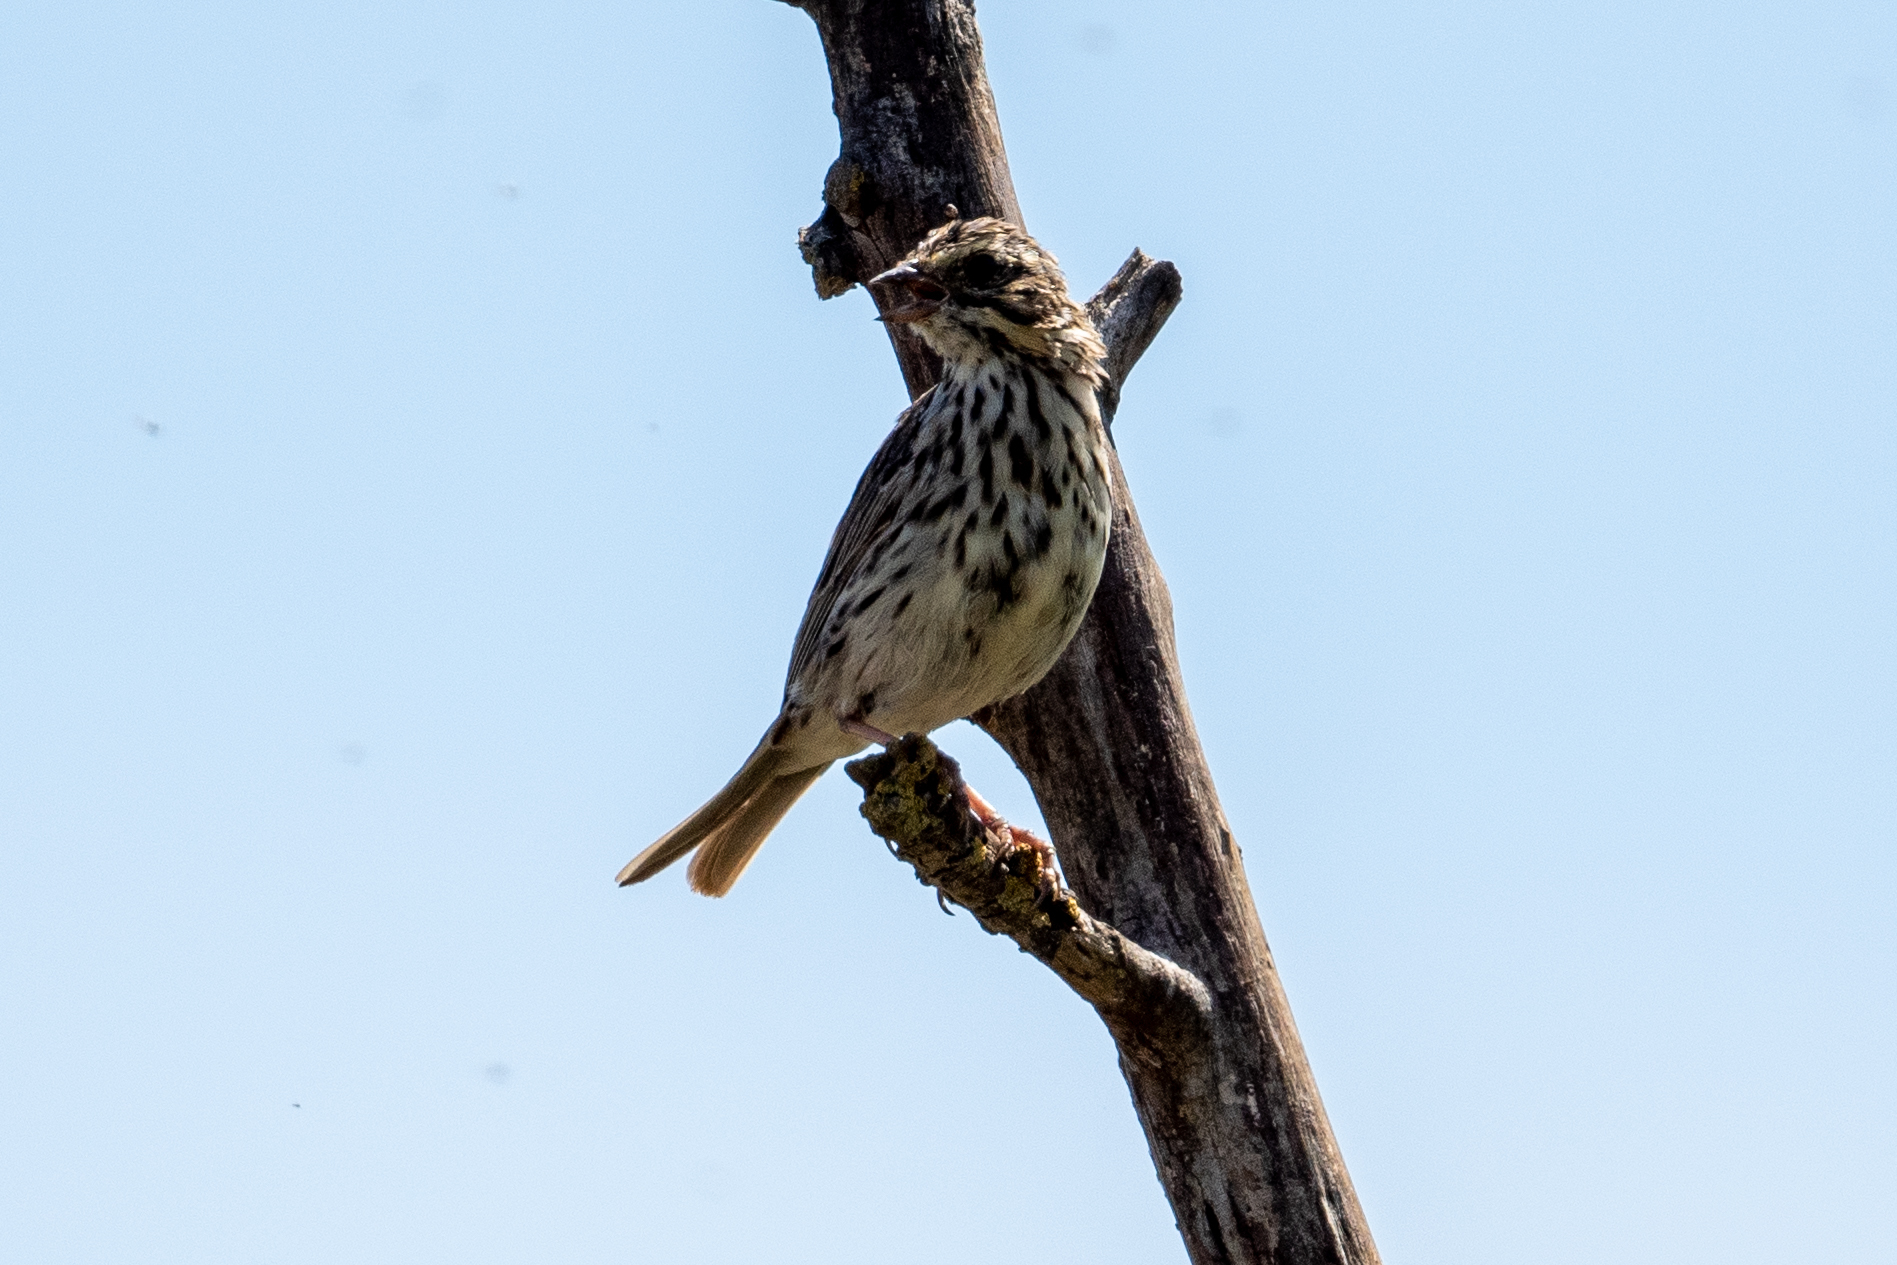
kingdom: Animalia
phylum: Chordata
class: Aves
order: Passeriformes
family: Passerellidae
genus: Passerculus
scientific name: Passerculus sandwichensis
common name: Savannah sparrow
